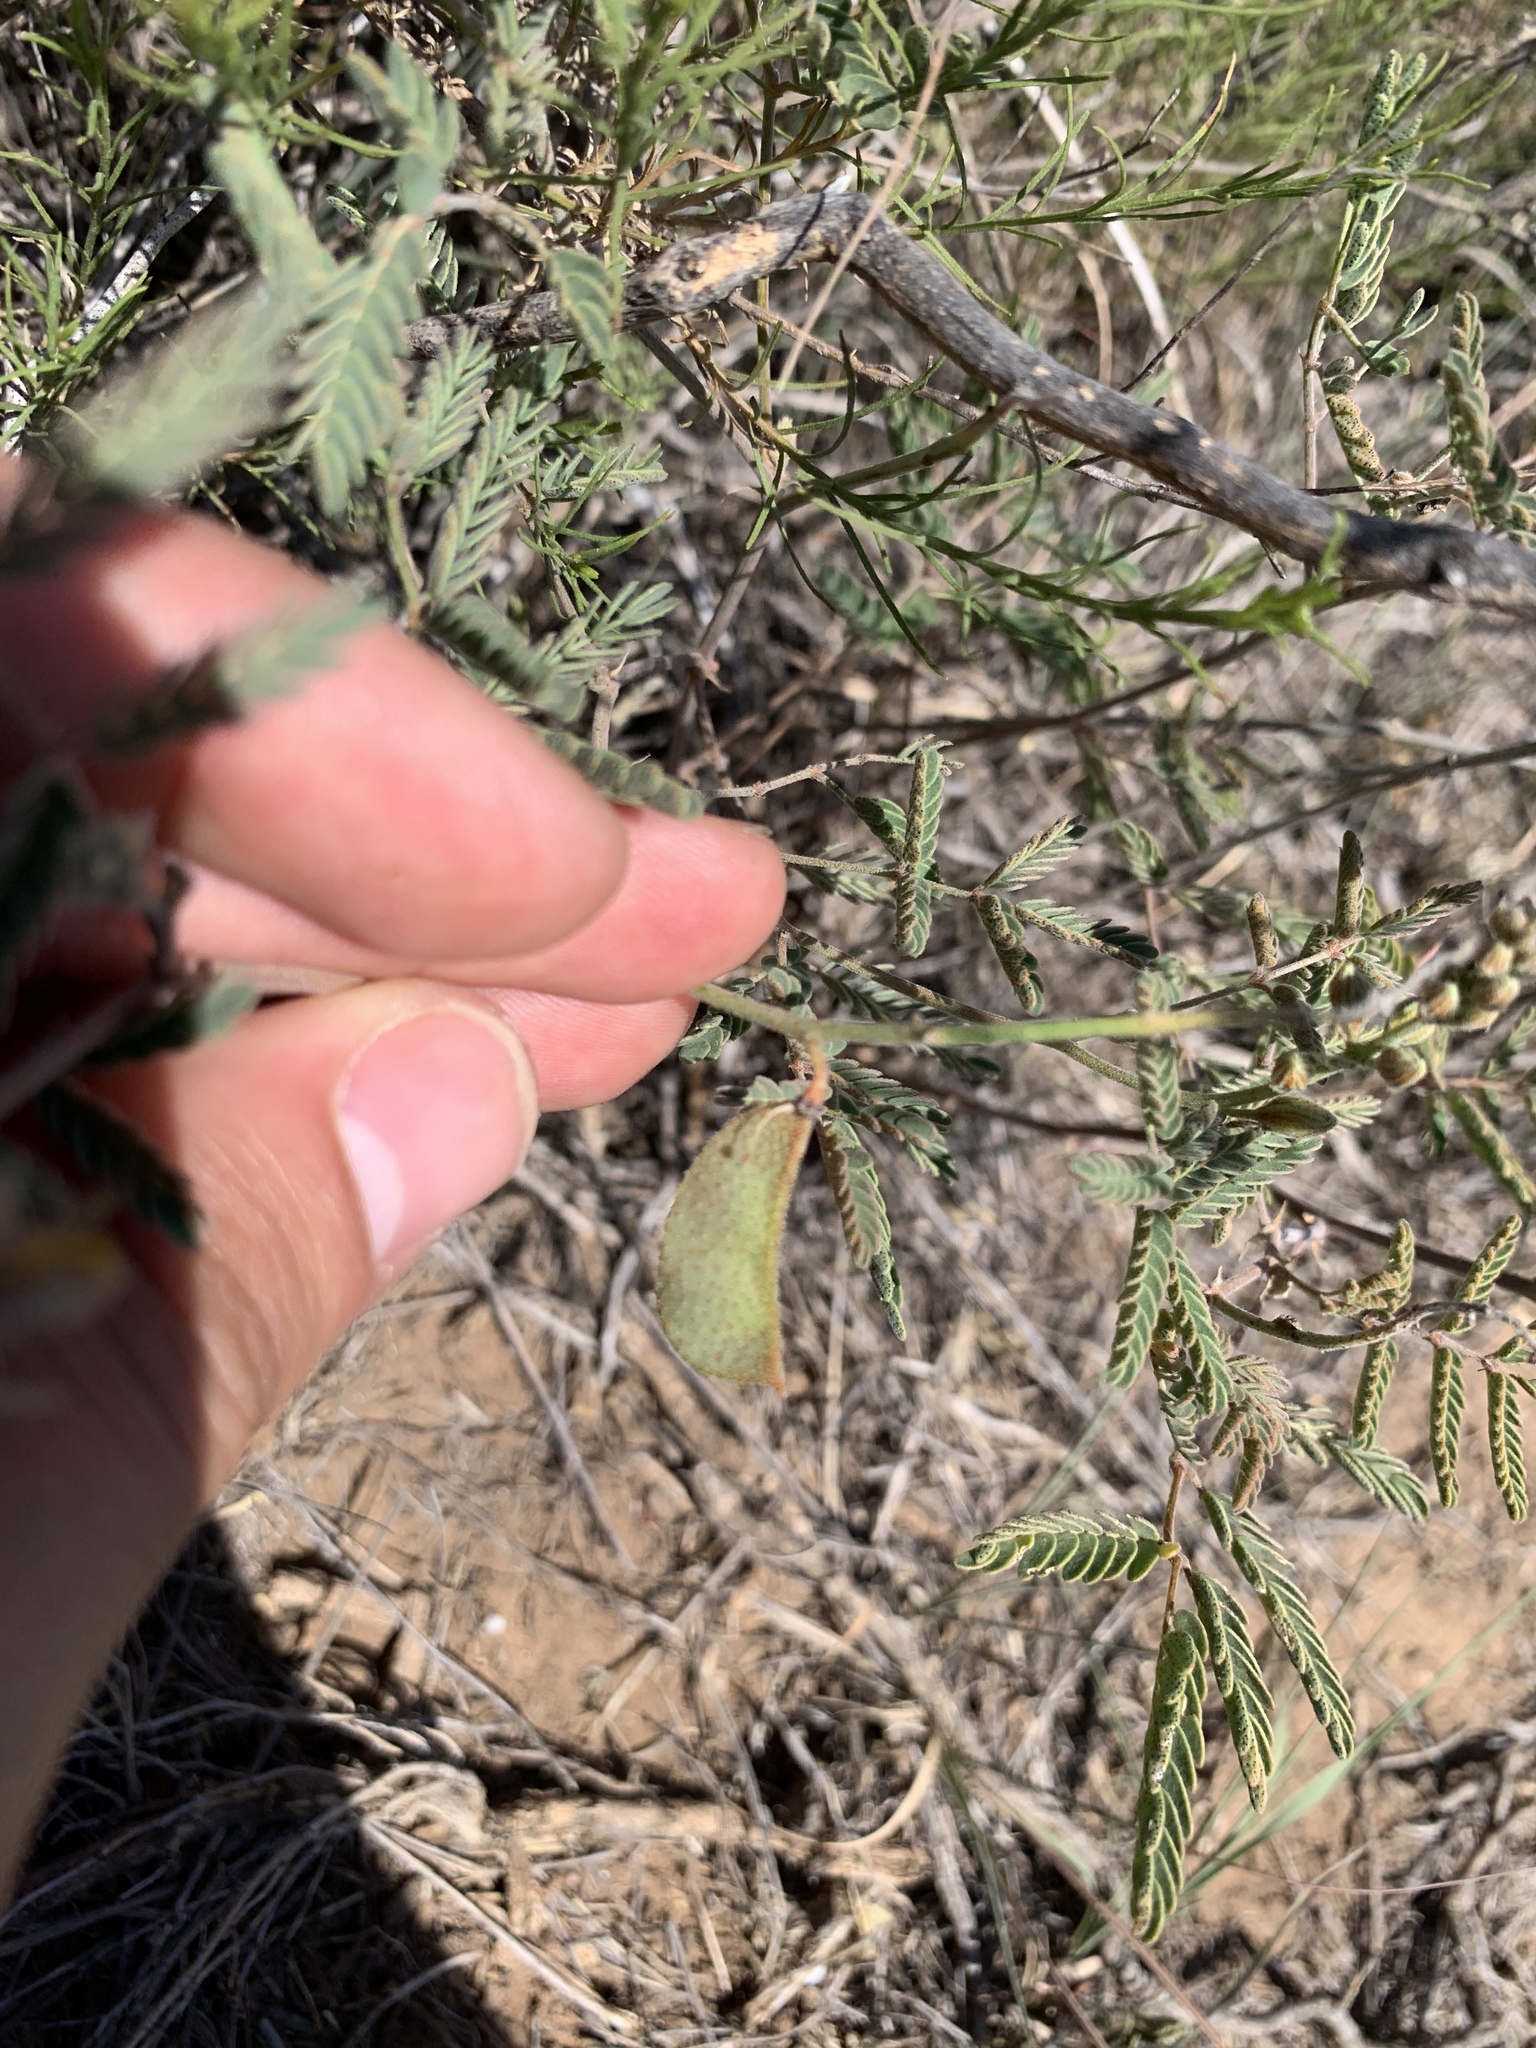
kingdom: Plantae
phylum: Tracheophyta
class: Magnoliopsida
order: Fabales
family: Fabaceae
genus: Pomaria
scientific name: Pomaria jamesii
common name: James' caesalpinia
